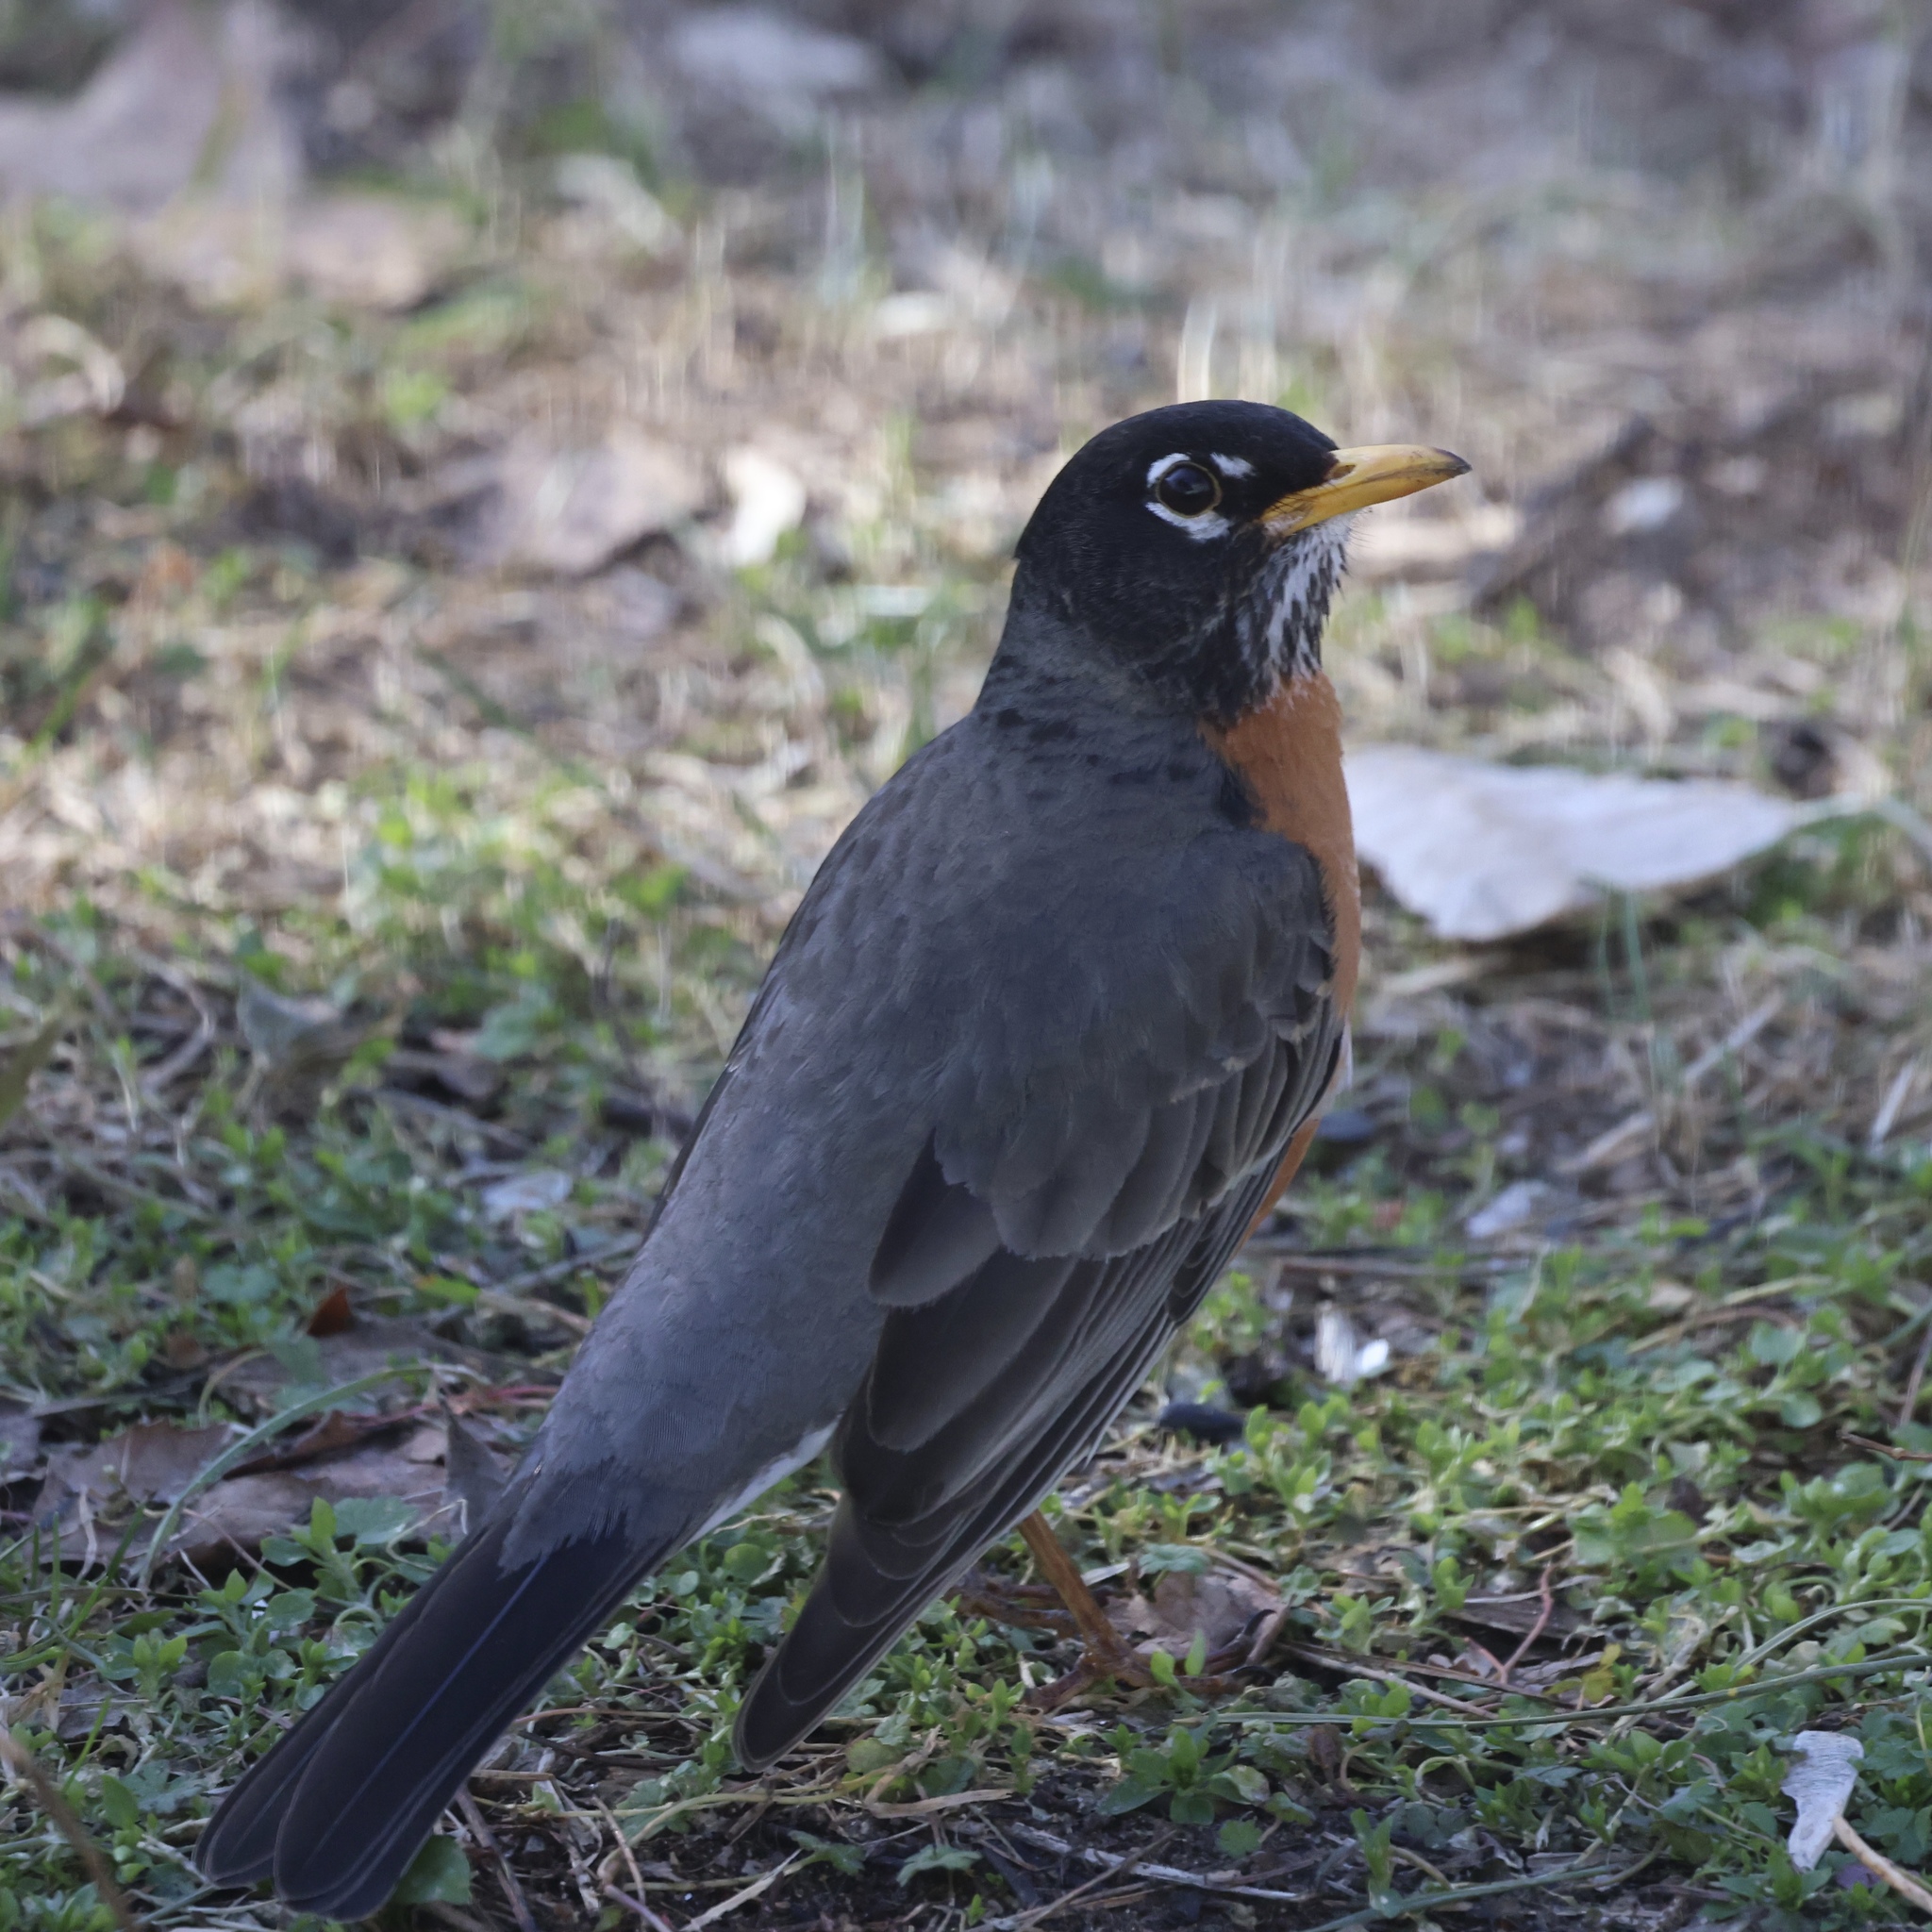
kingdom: Animalia
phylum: Chordata
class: Aves
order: Passeriformes
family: Turdidae
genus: Turdus
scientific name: Turdus migratorius
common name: American robin
